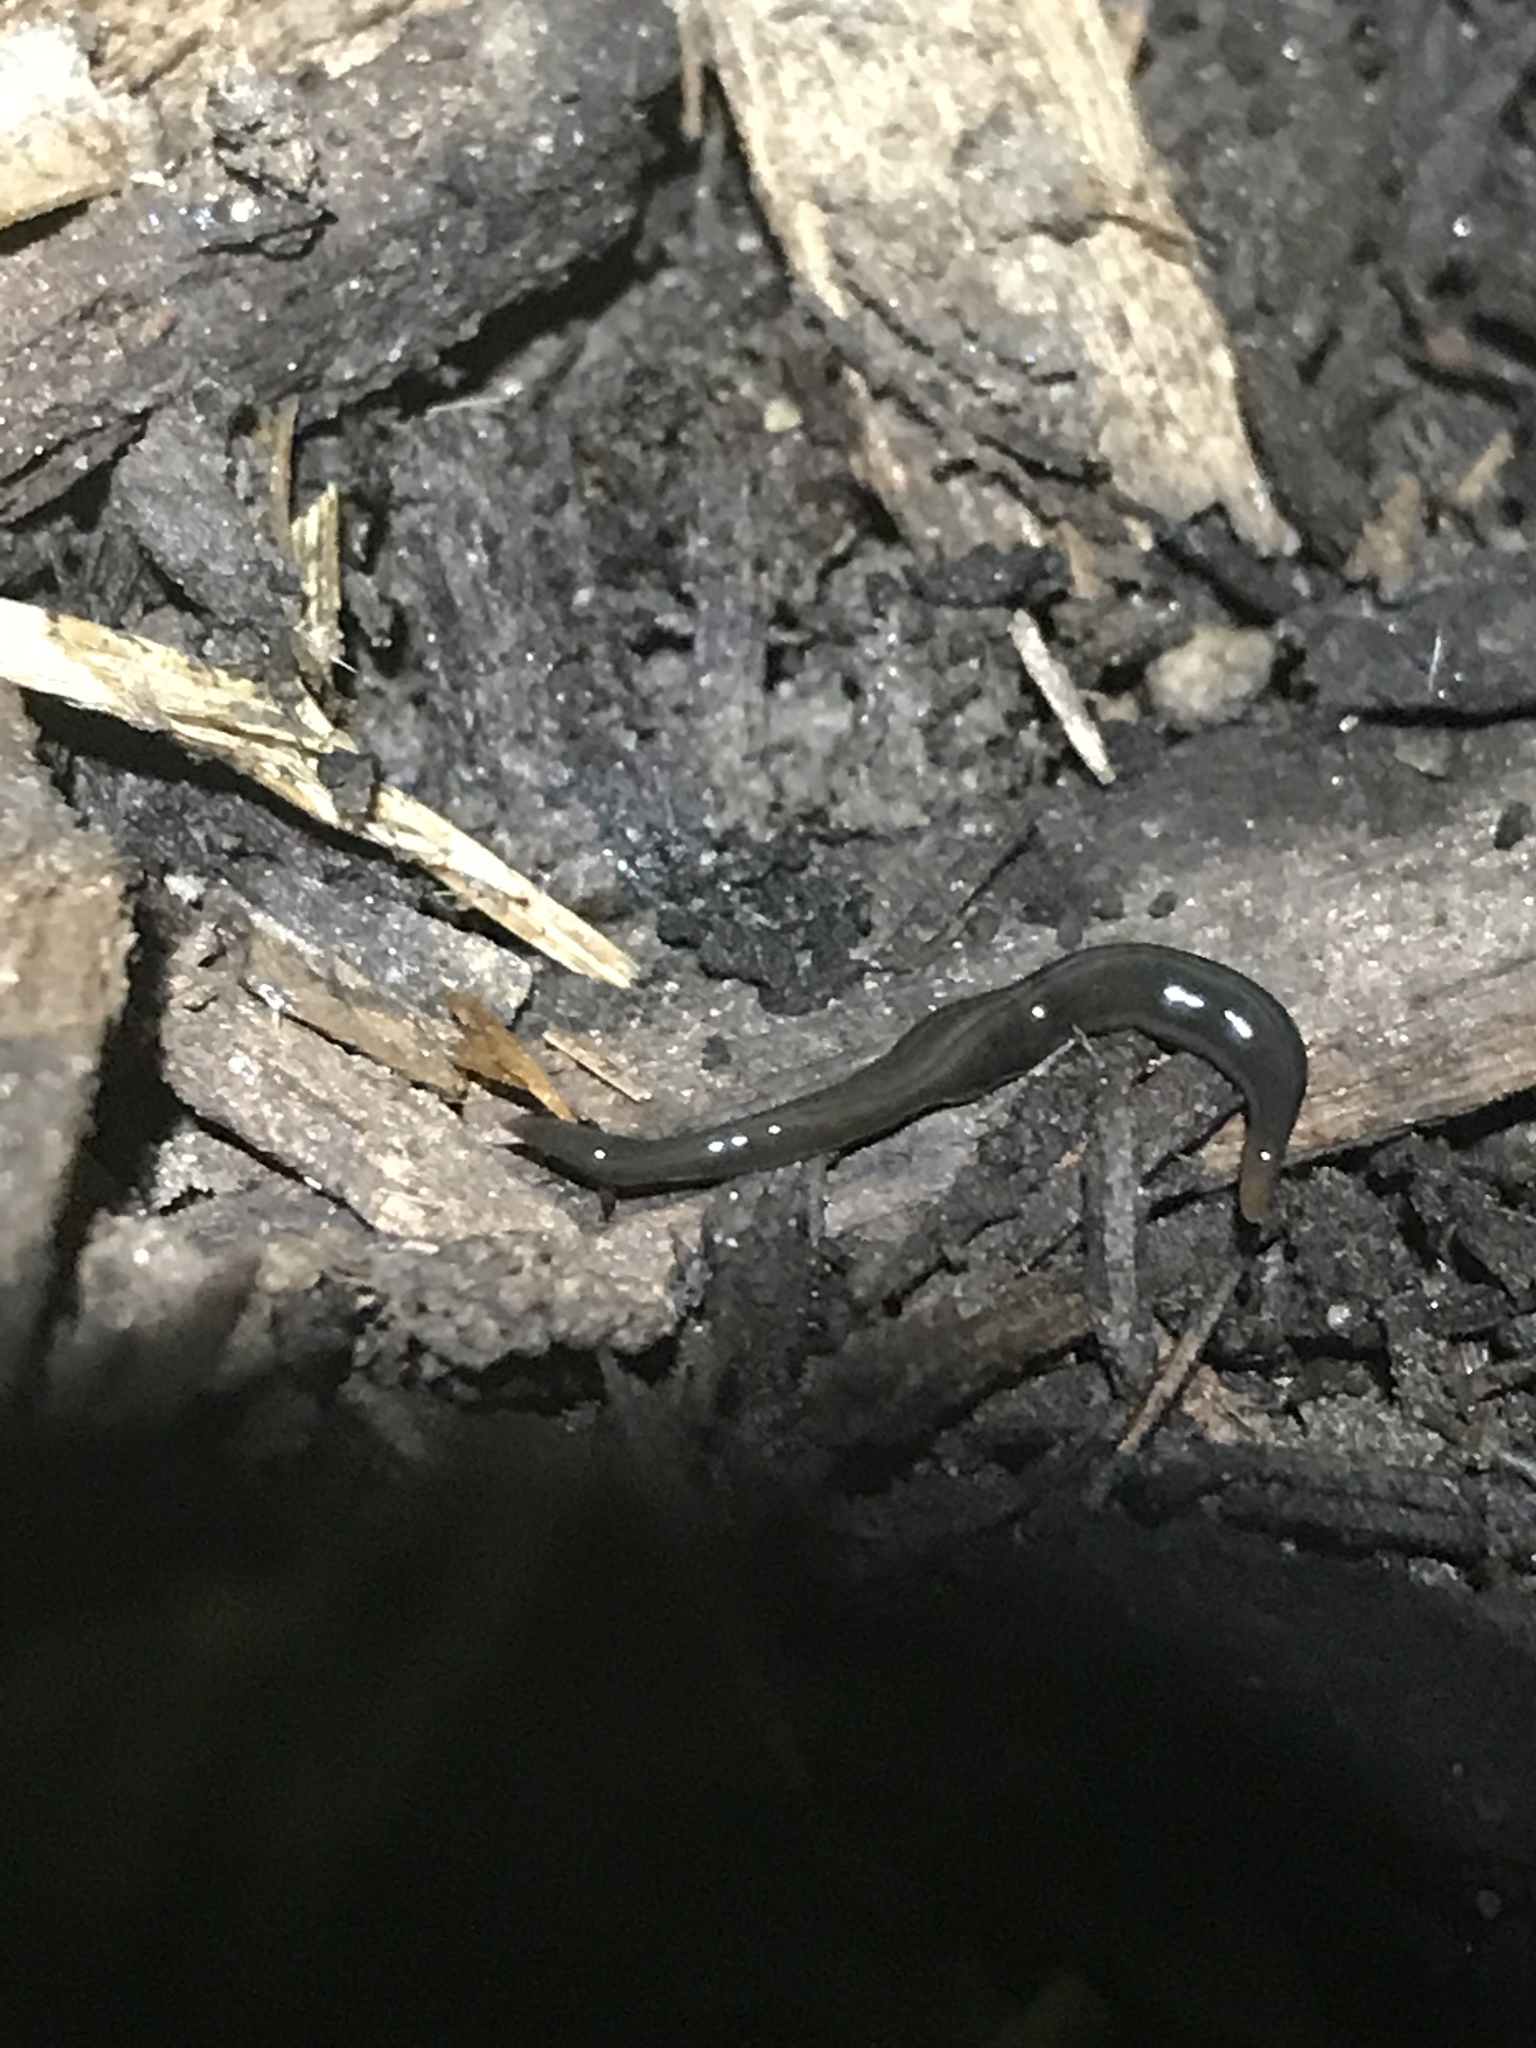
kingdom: Animalia
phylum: Platyhelminthes
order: Tricladida
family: Geoplanidae
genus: Parakontikia
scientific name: Parakontikia ventrolineata
